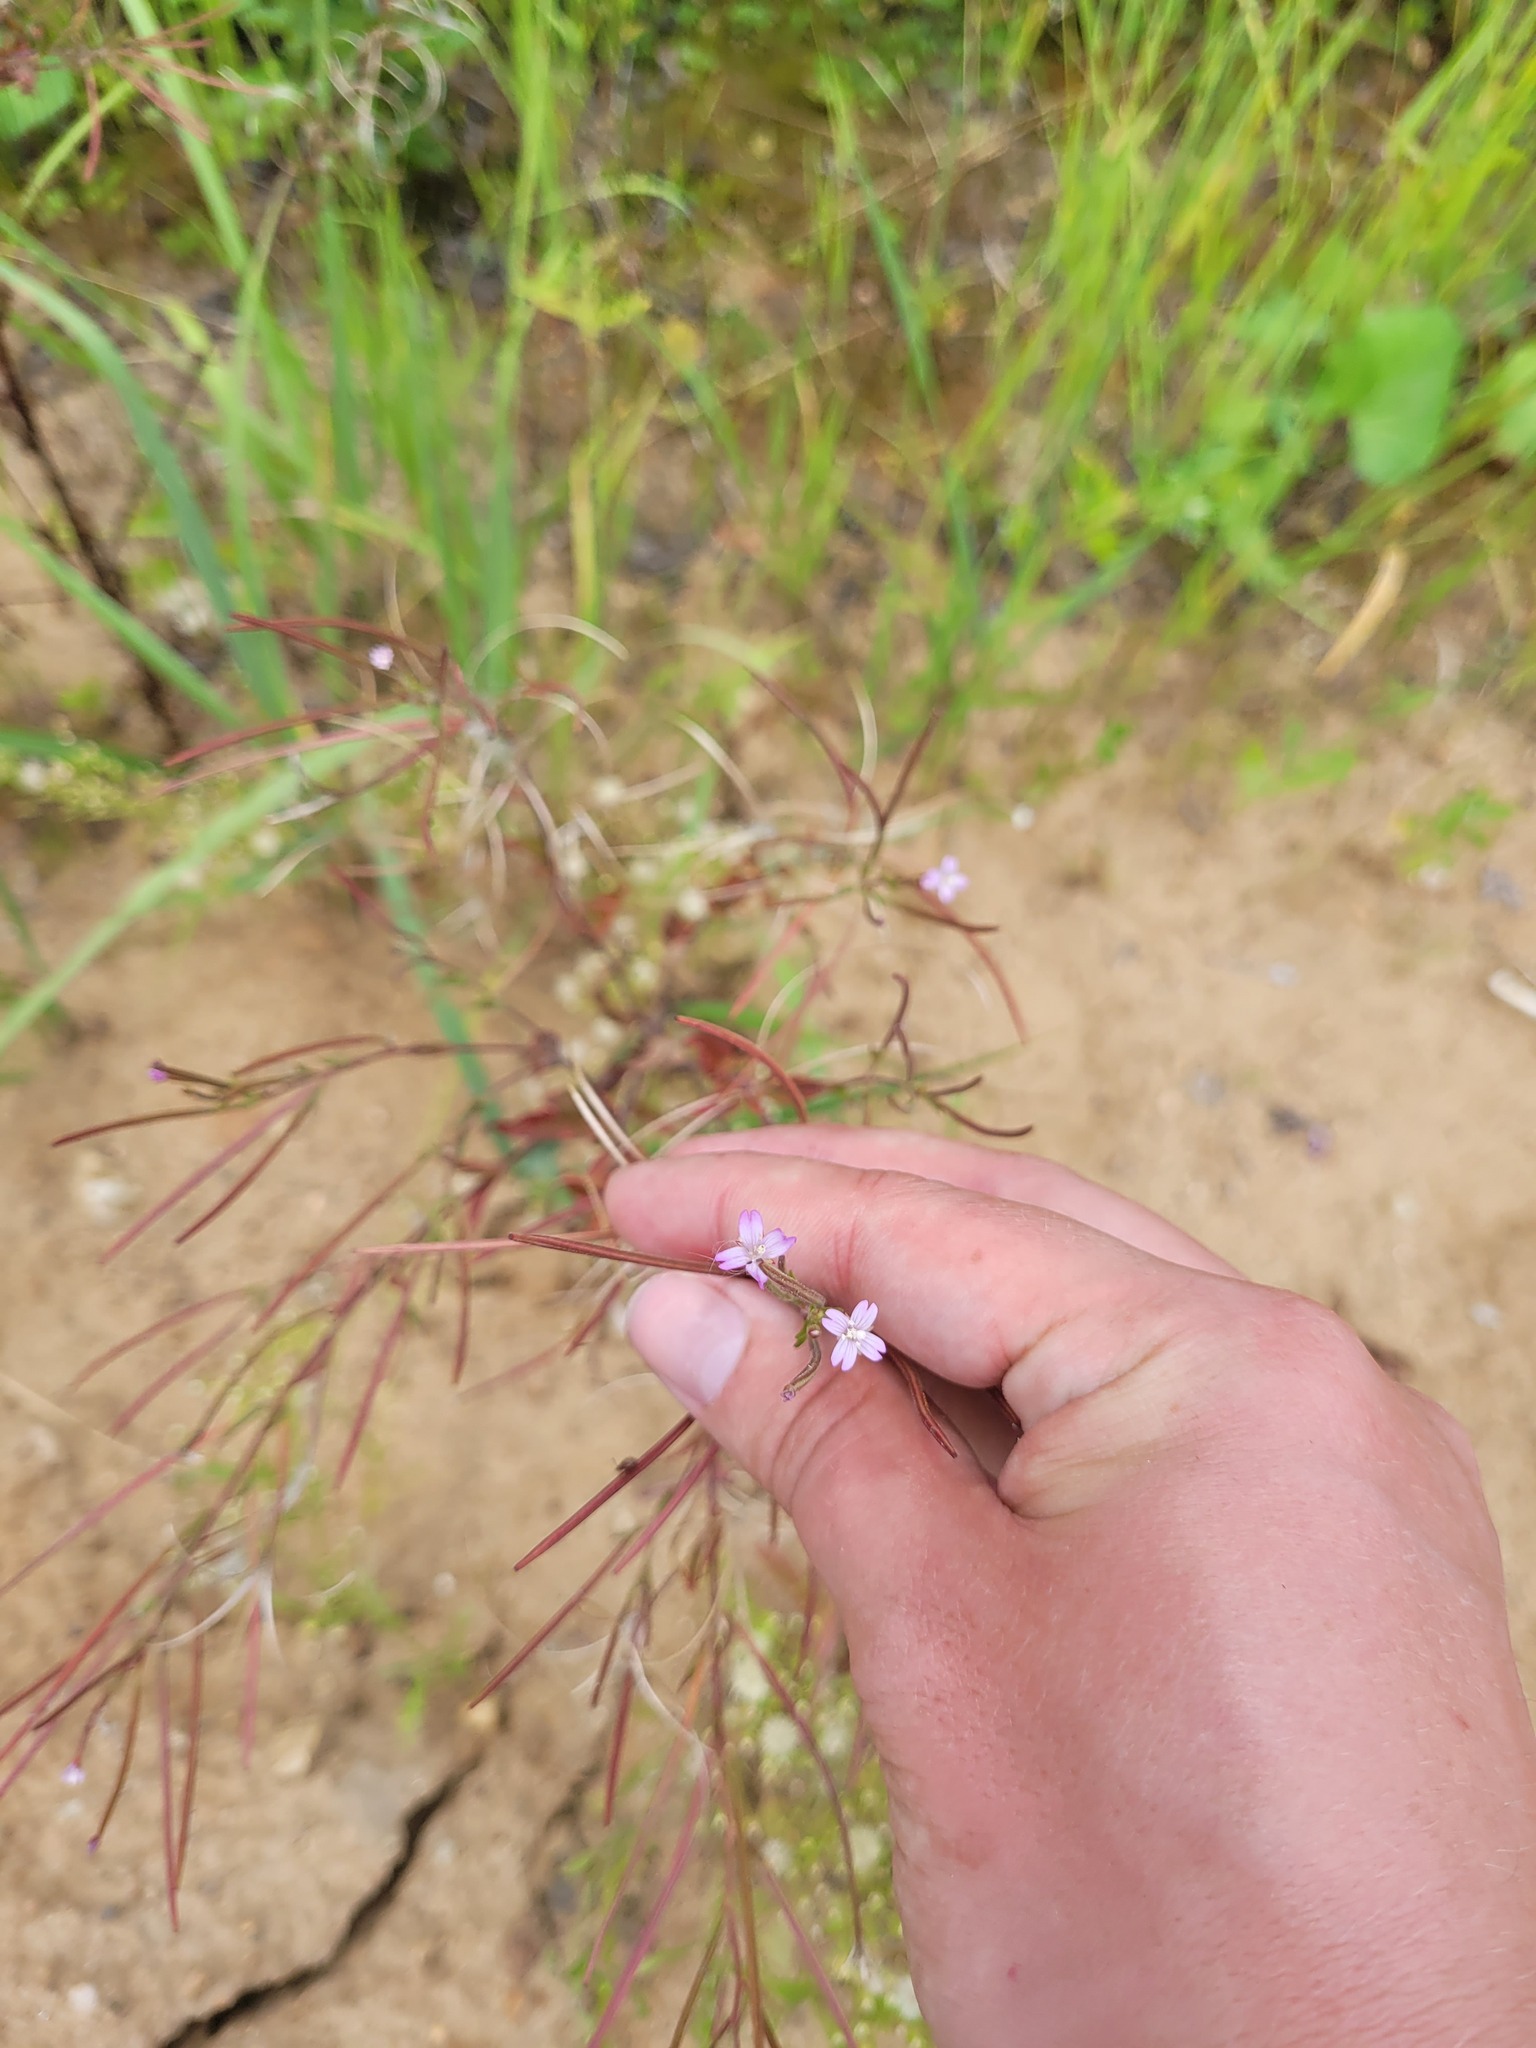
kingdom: Plantae
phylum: Tracheophyta
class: Magnoliopsida
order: Myrtales
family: Onagraceae
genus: Epilobium
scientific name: Epilobium ciliatum
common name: American willowherb
